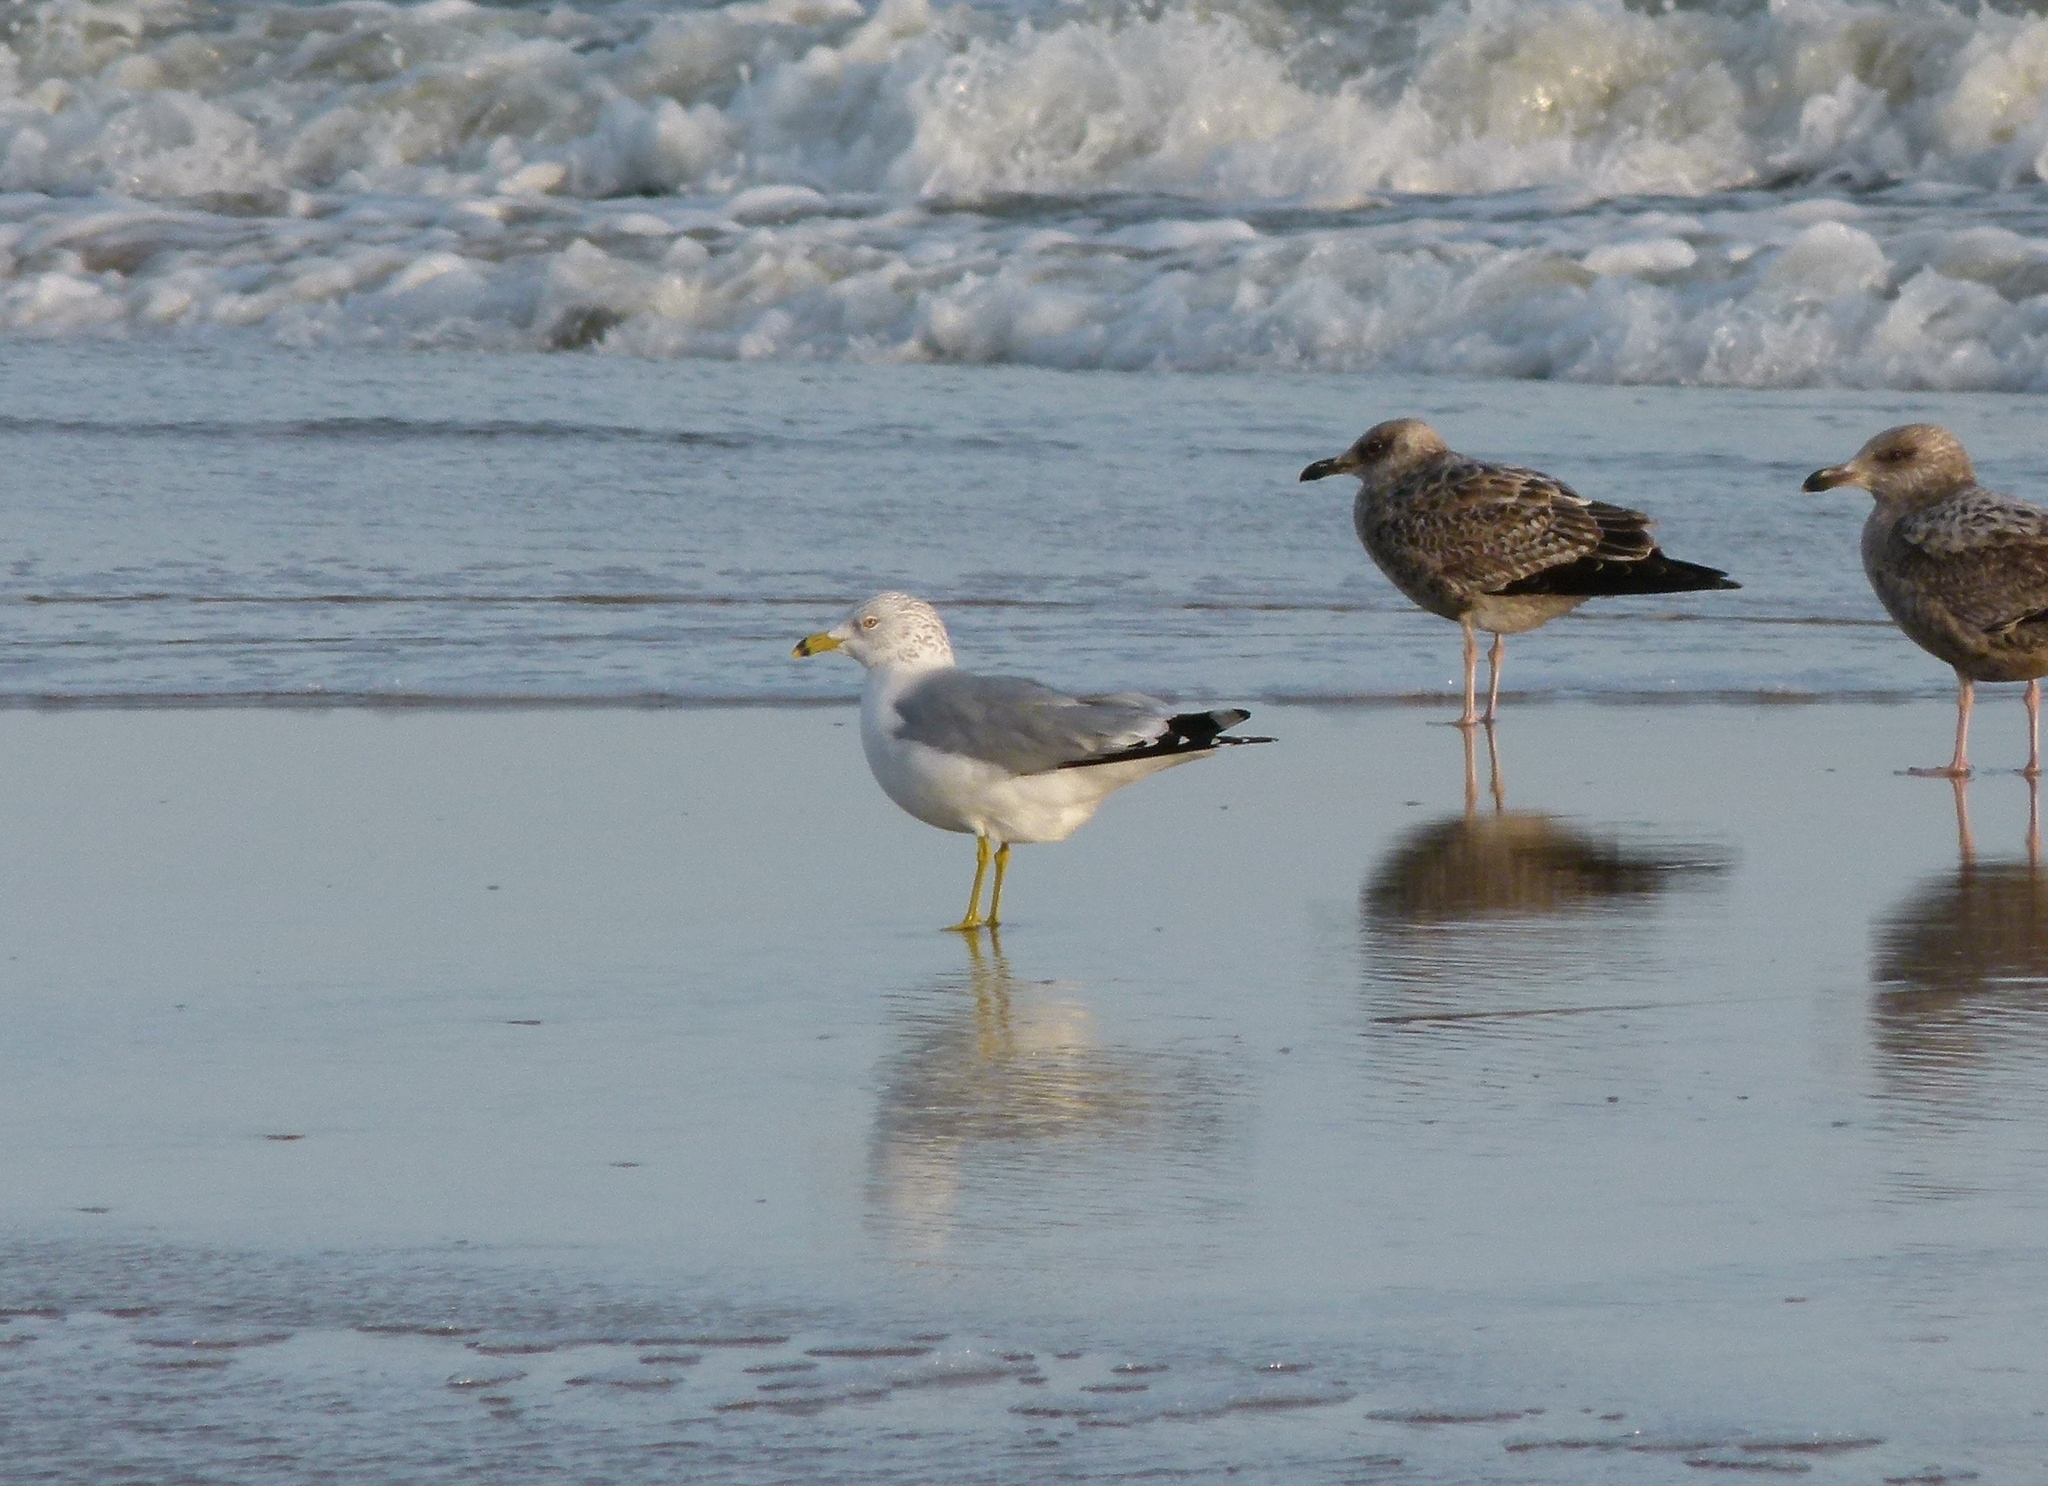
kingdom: Animalia
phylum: Chordata
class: Aves
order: Charadriiformes
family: Laridae
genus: Larus
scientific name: Larus delawarensis
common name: Ring-billed gull
